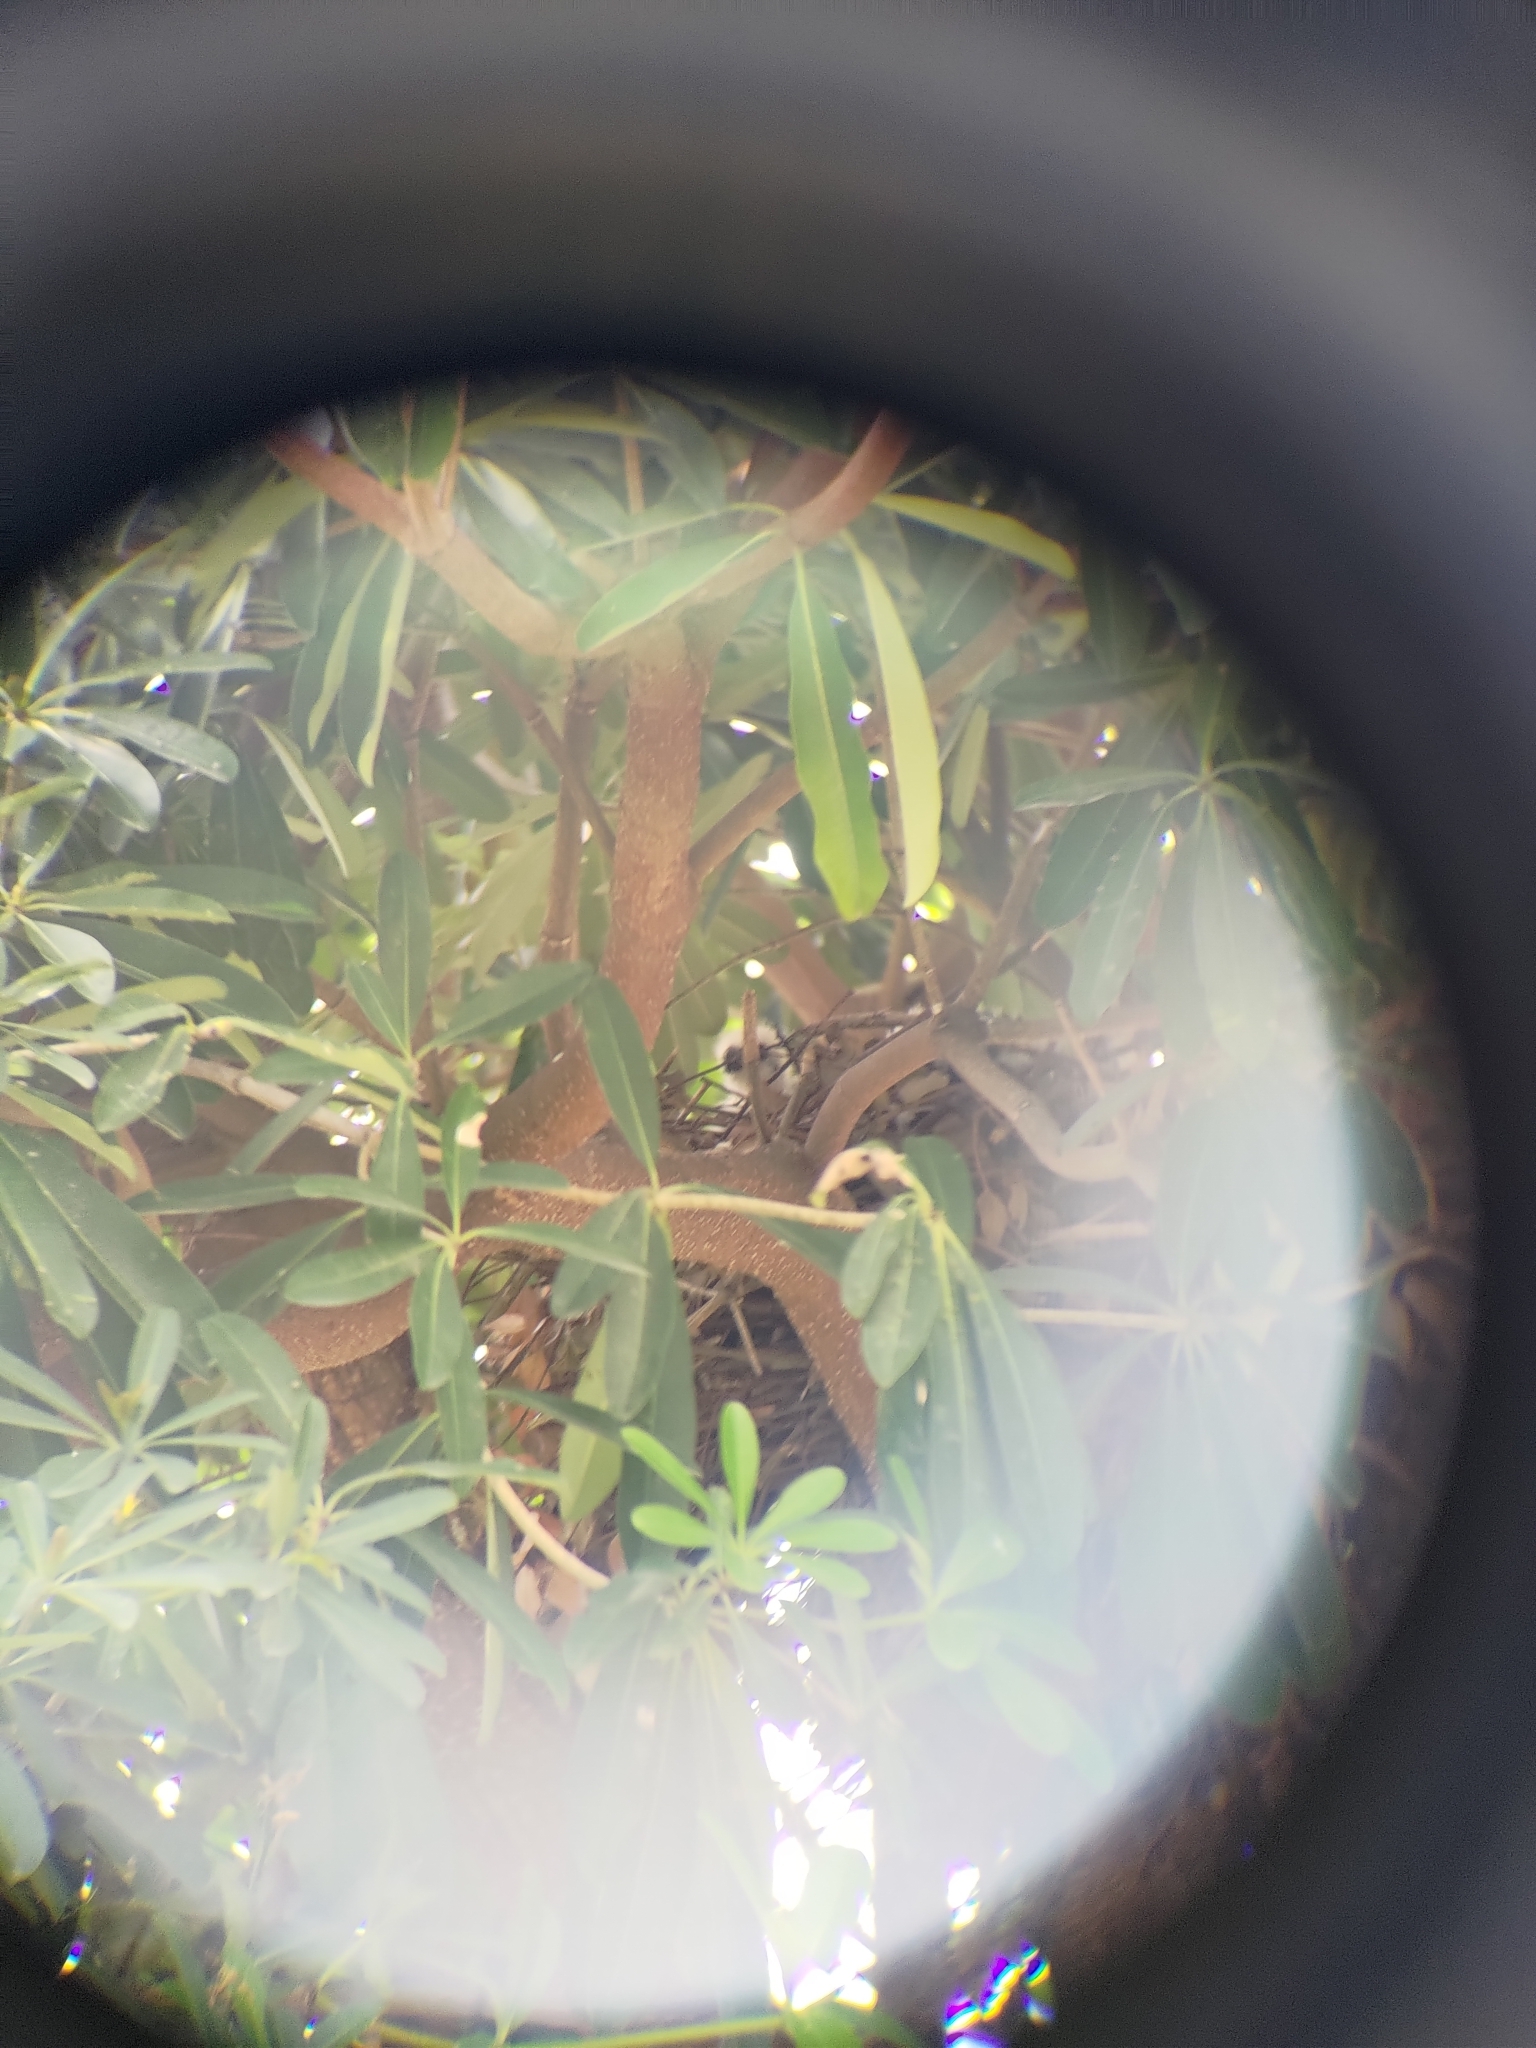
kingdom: Animalia
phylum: Chordata
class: Aves
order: Accipitriformes
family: Accipitridae
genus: Accipiter
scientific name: Accipiter trivirgatus
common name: Crested goshawk
